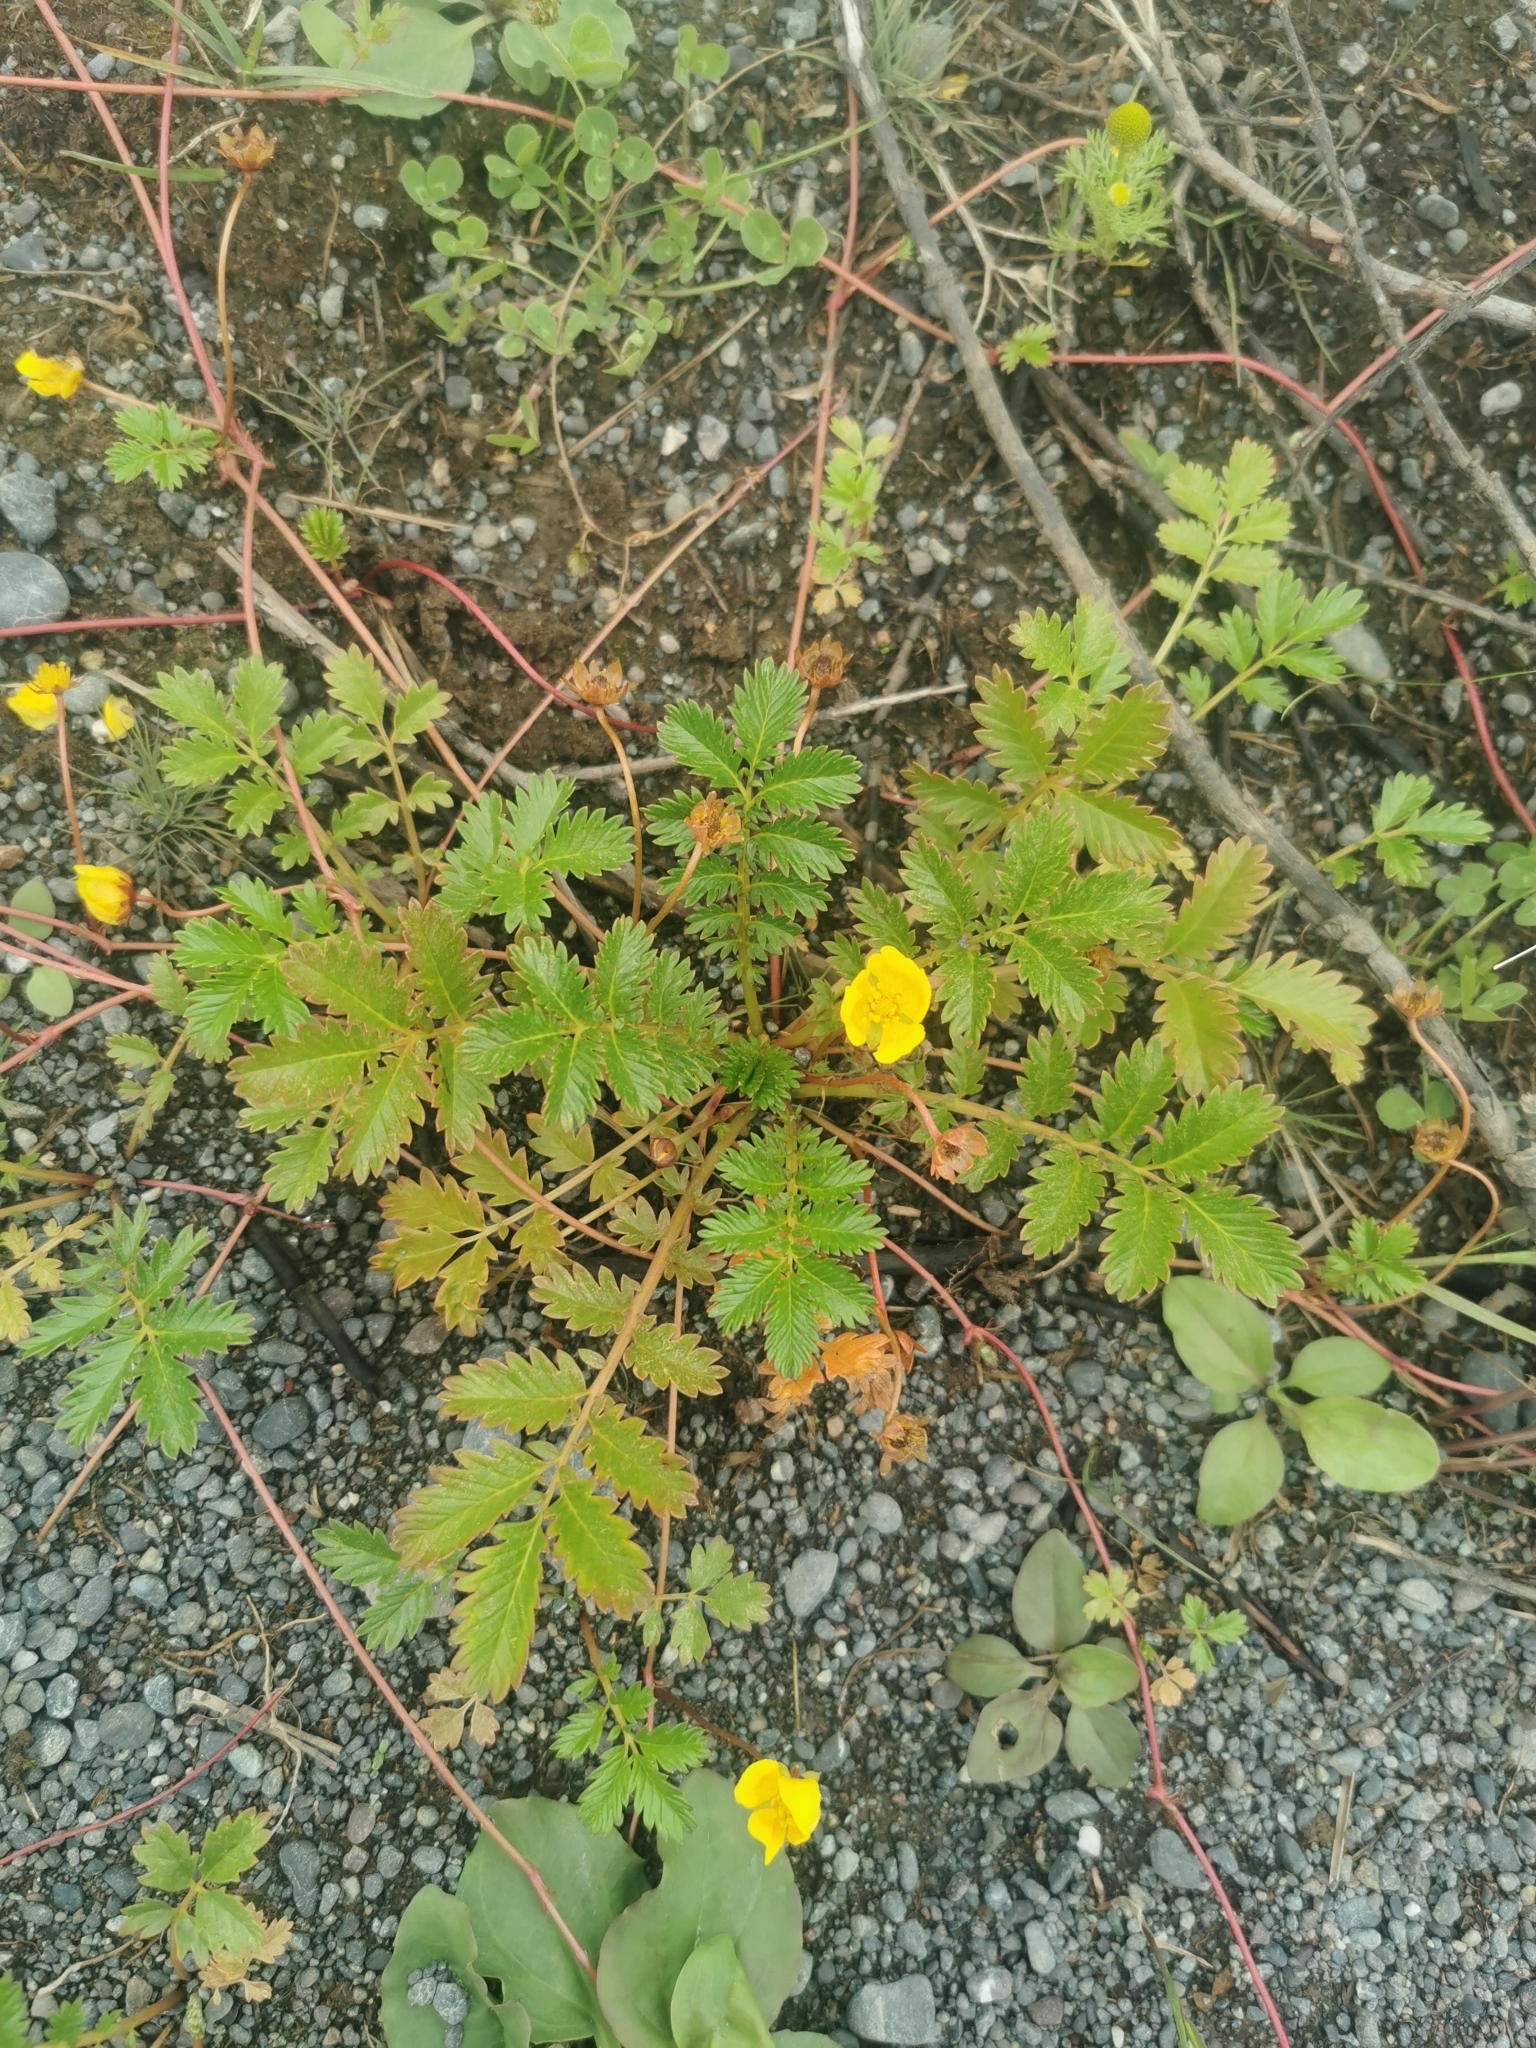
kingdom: Plantae
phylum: Tracheophyta
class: Magnoliopsida
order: Rosales
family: Rosaceae
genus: Argentina
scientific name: Argentina anserina
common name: Common silverweed
